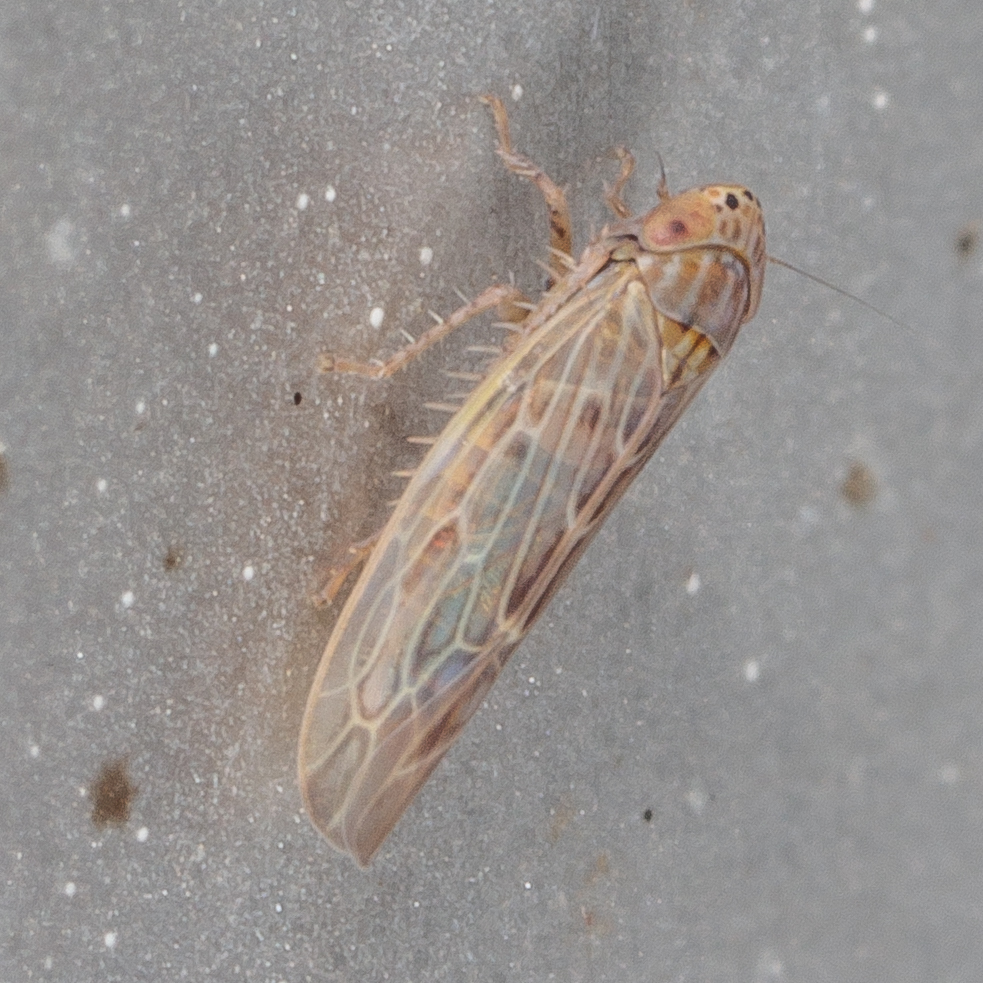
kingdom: Animalia
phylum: Arthropoda
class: Insecta
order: Hemiptera
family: Cicadellidae
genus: Graminella
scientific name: Graminella sonora
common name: Lesser lawn leafhopper
